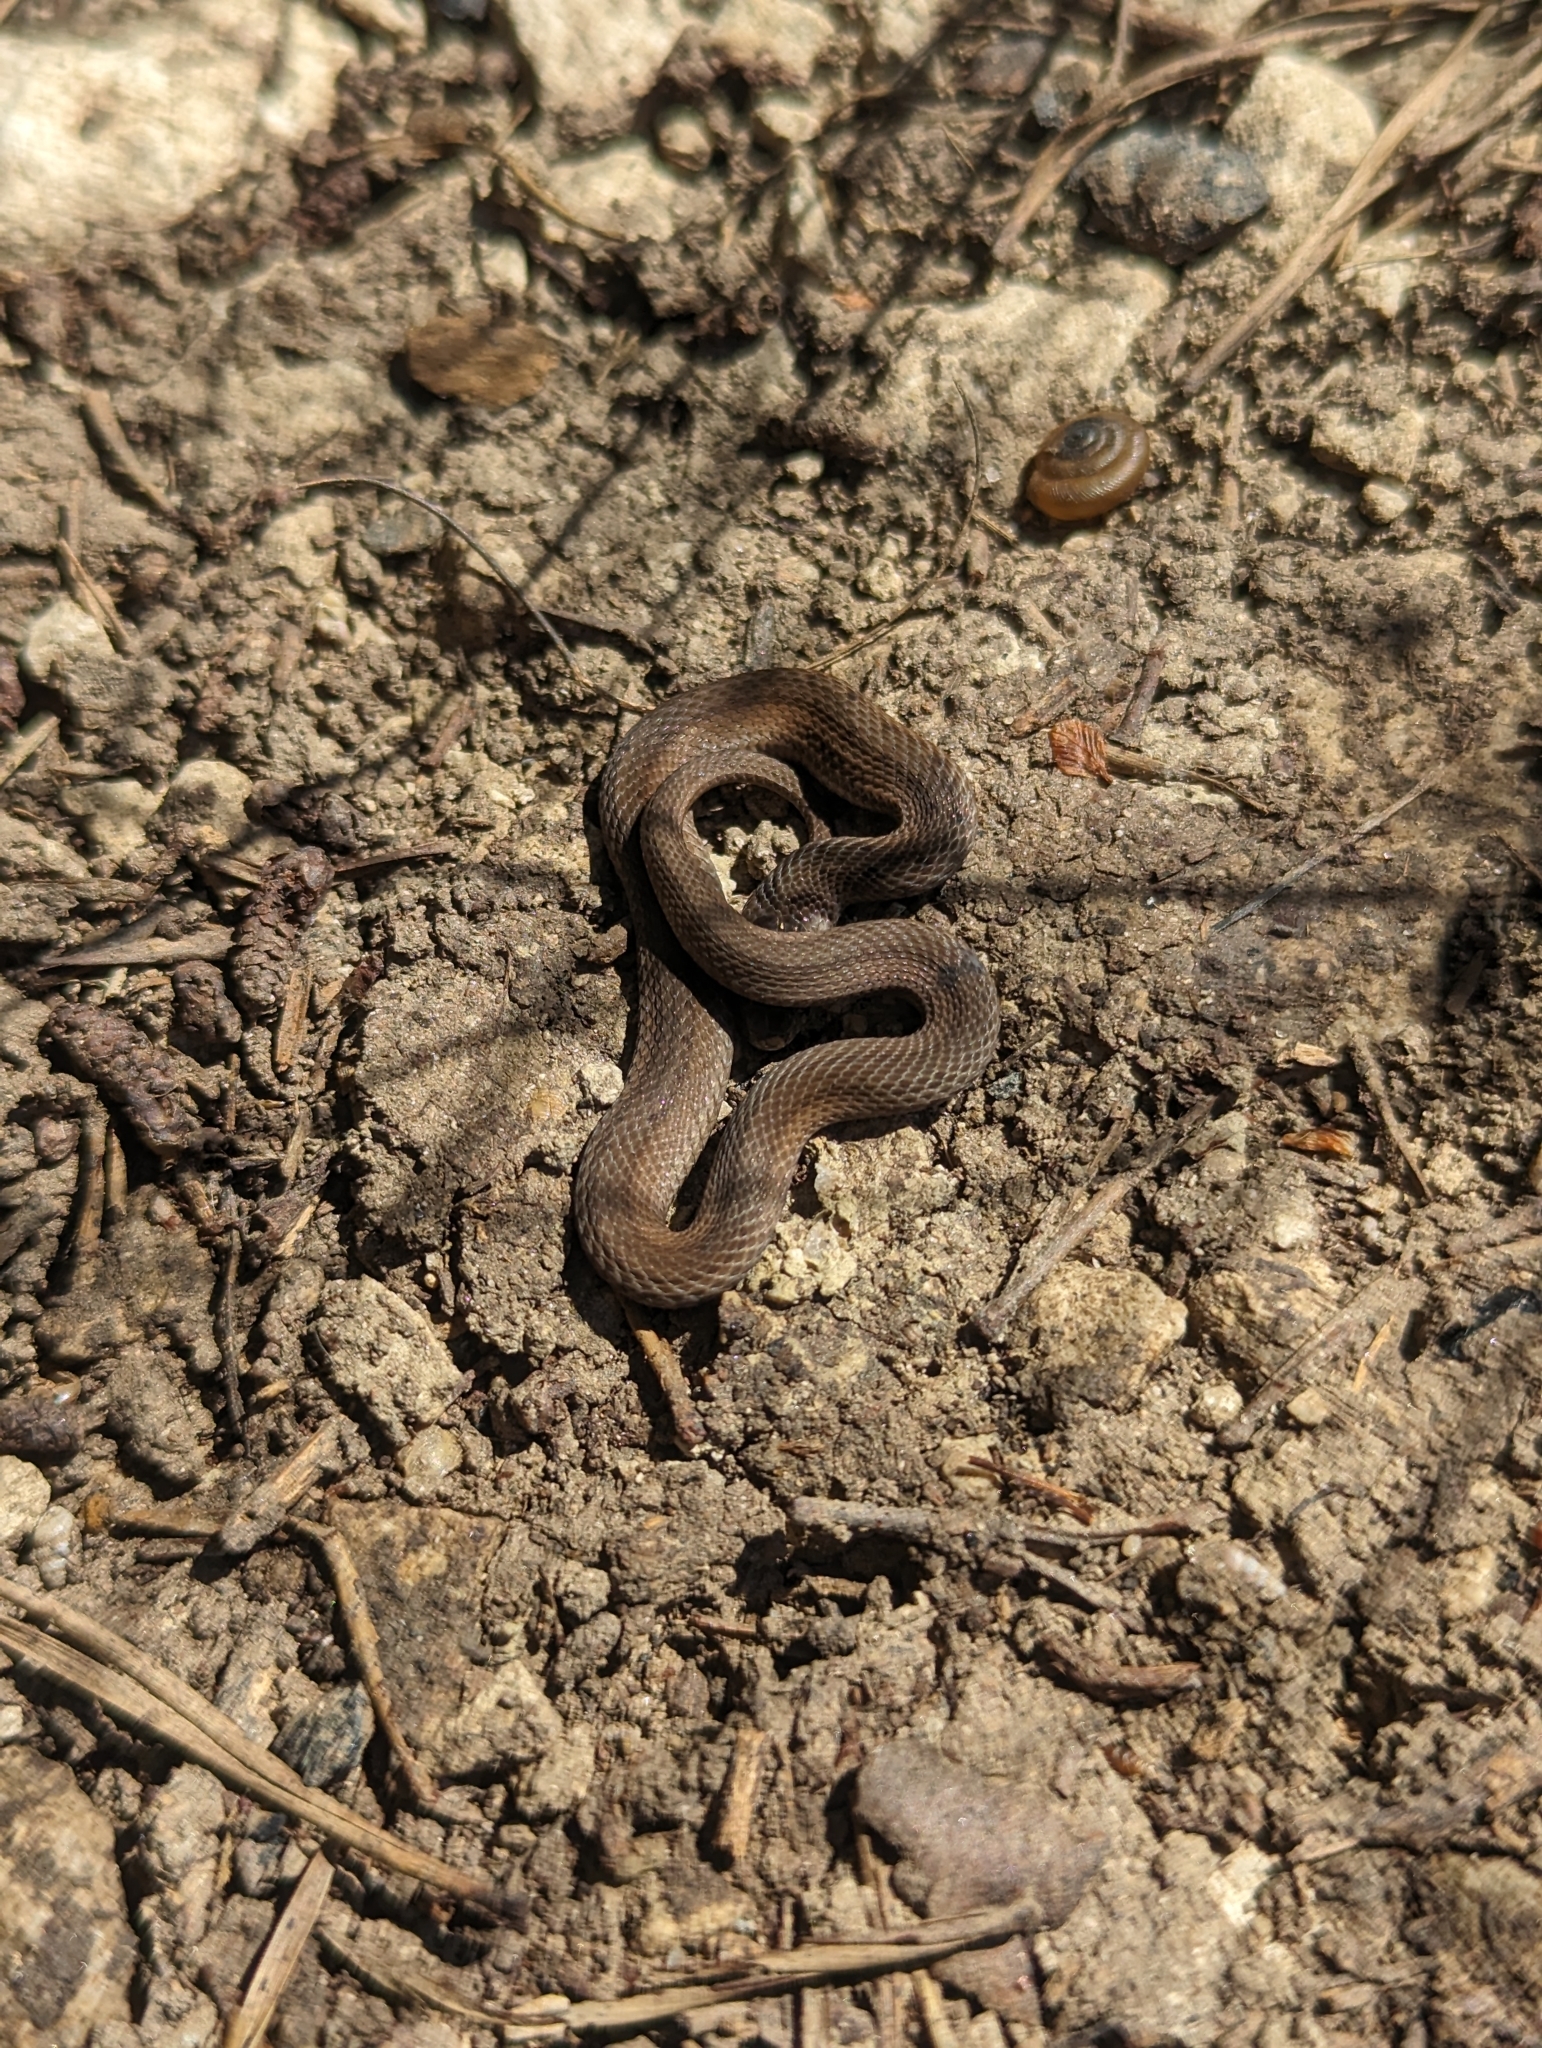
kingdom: Animalia
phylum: Chordata
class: Squamata
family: Colubridae
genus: Storeria
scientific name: Storeria dekayi
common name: (dekay’s) brown snake
